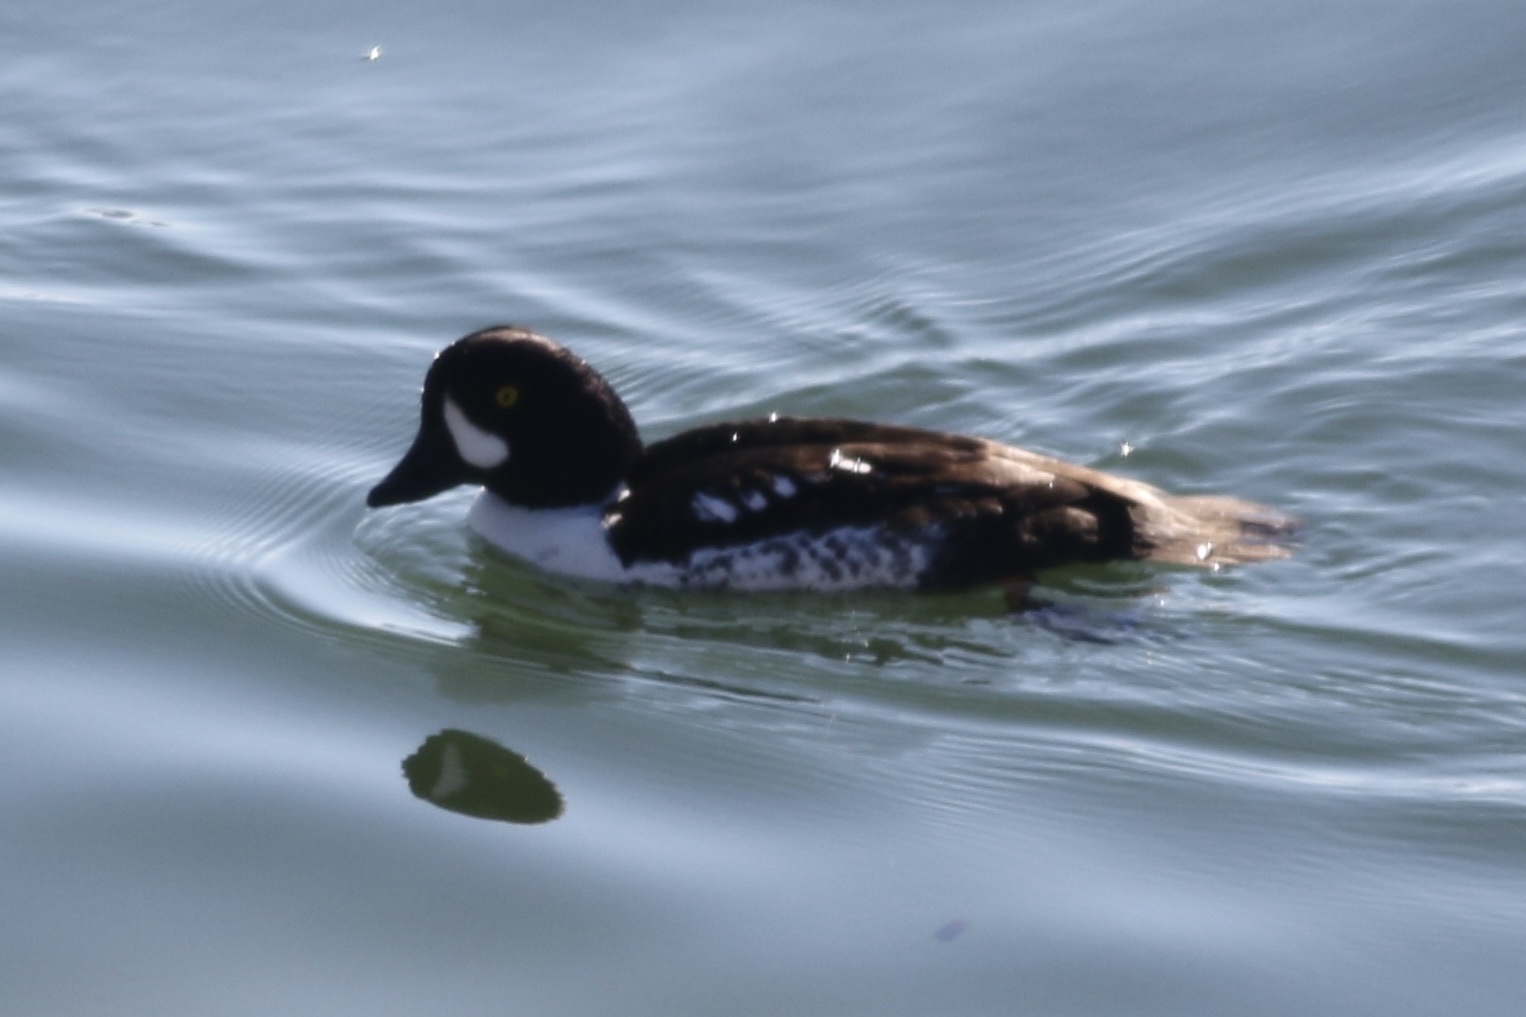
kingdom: Animalia
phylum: Chordata
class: Aves
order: Anseriformes
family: Anatidae
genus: Bucephala
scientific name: Bucephala islandica
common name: Barrow's goldeneye
